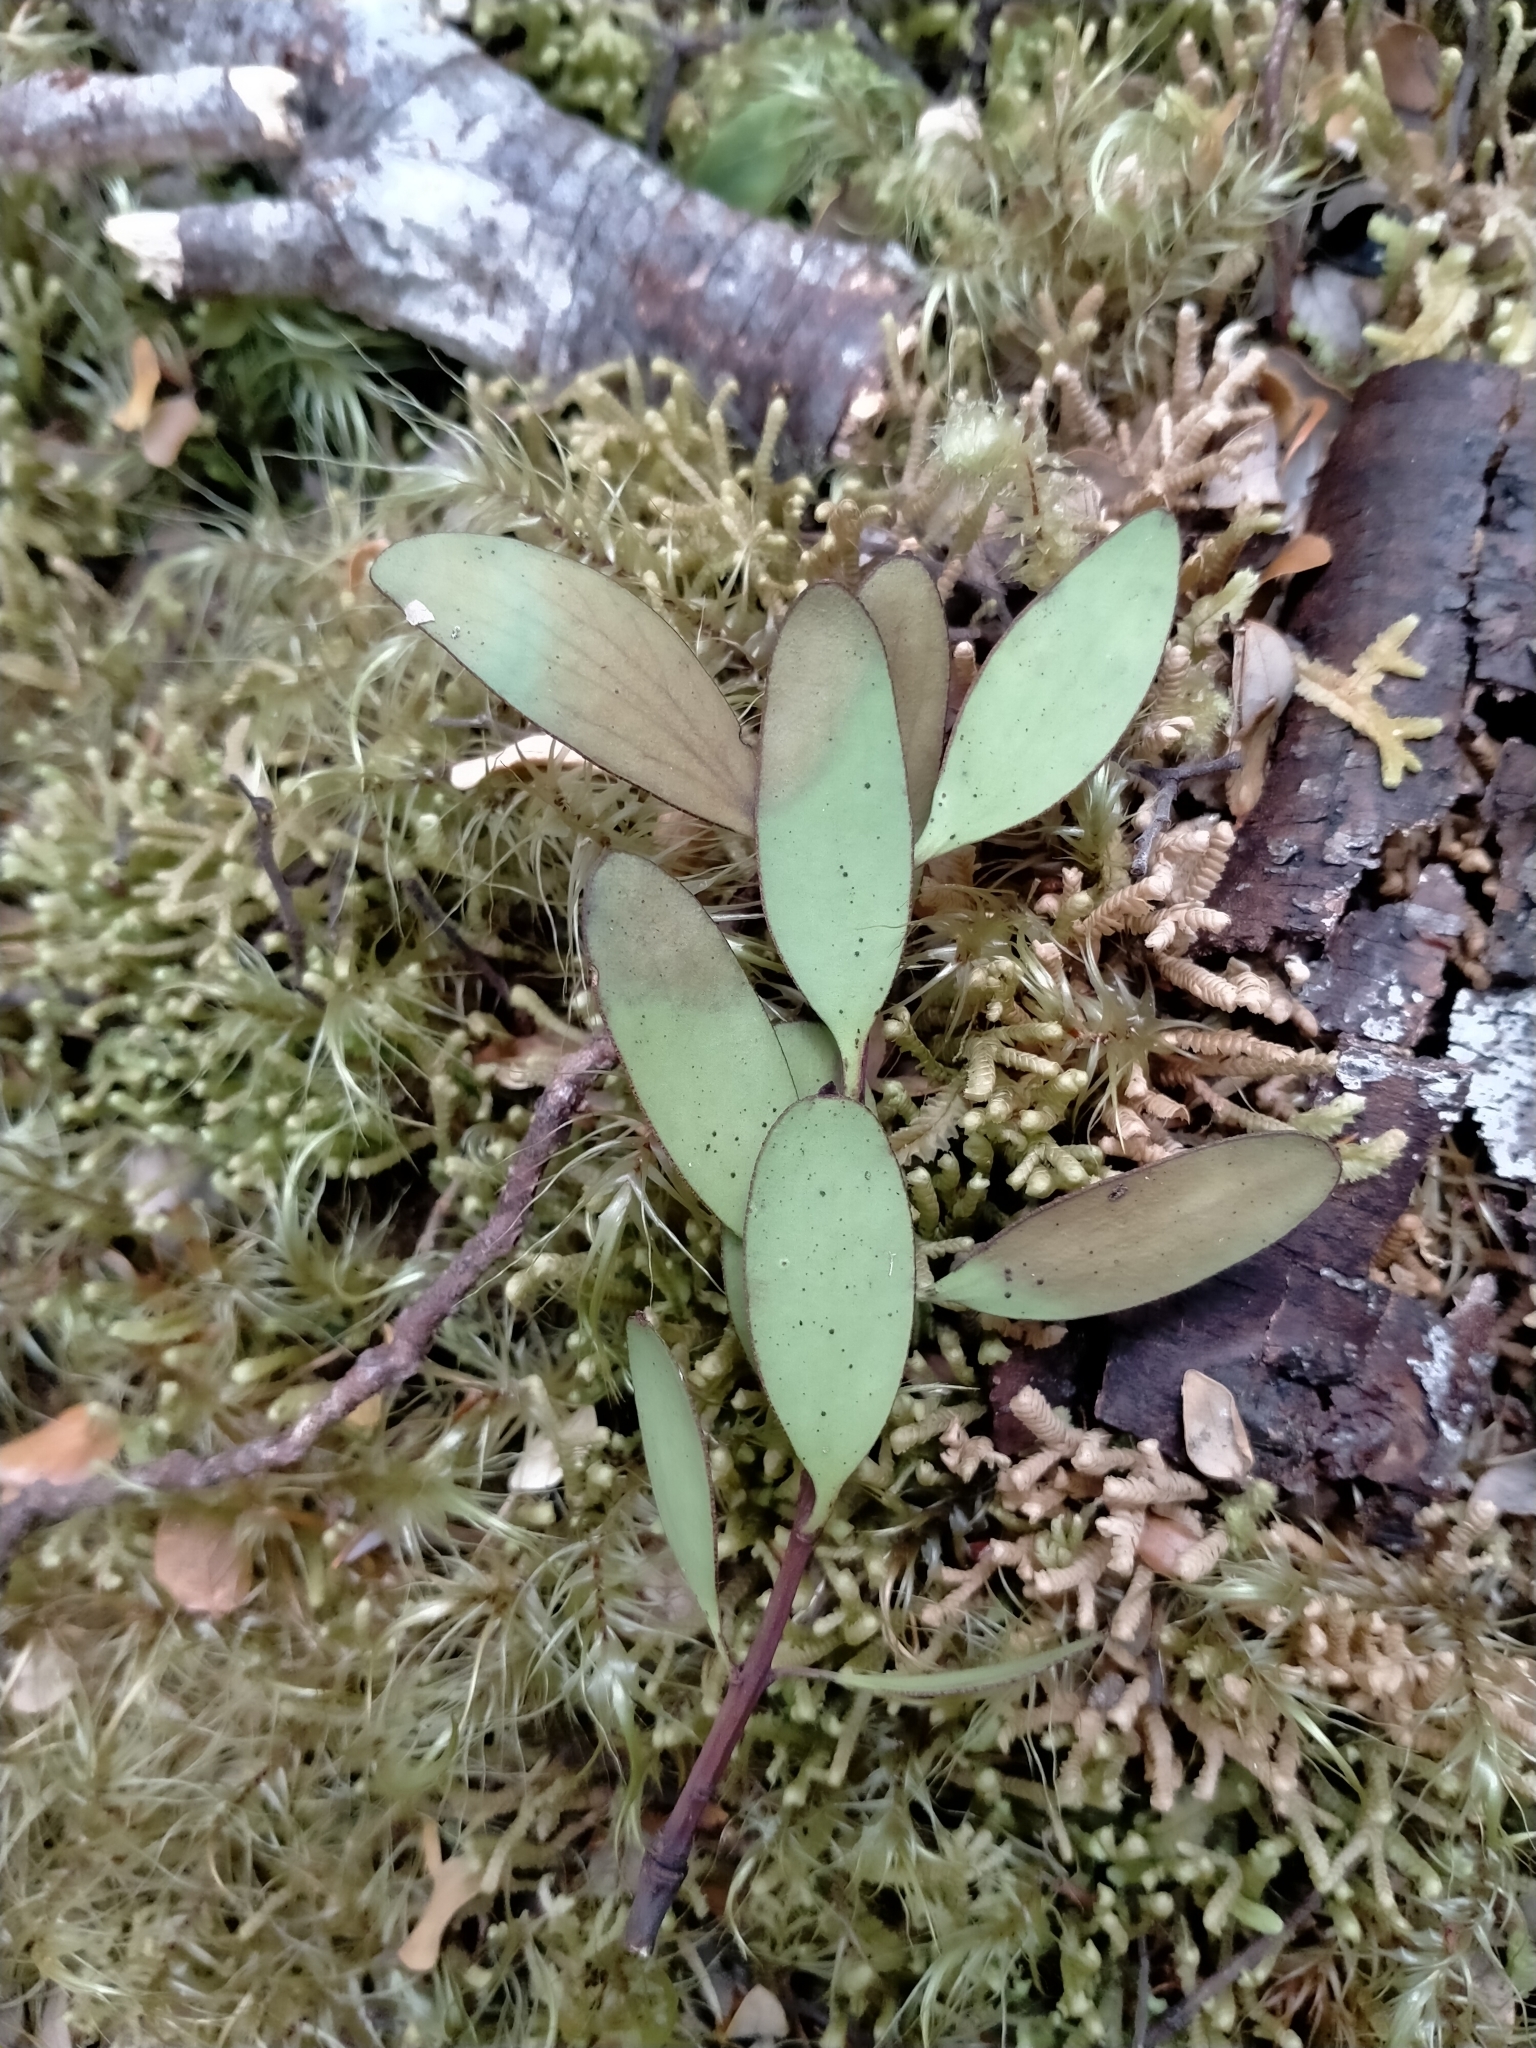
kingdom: Plantae
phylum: Tracheophyta
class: Magnoliopsida
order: Santalales
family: Loranthaceae
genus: Alepis
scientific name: Alepis flavida
